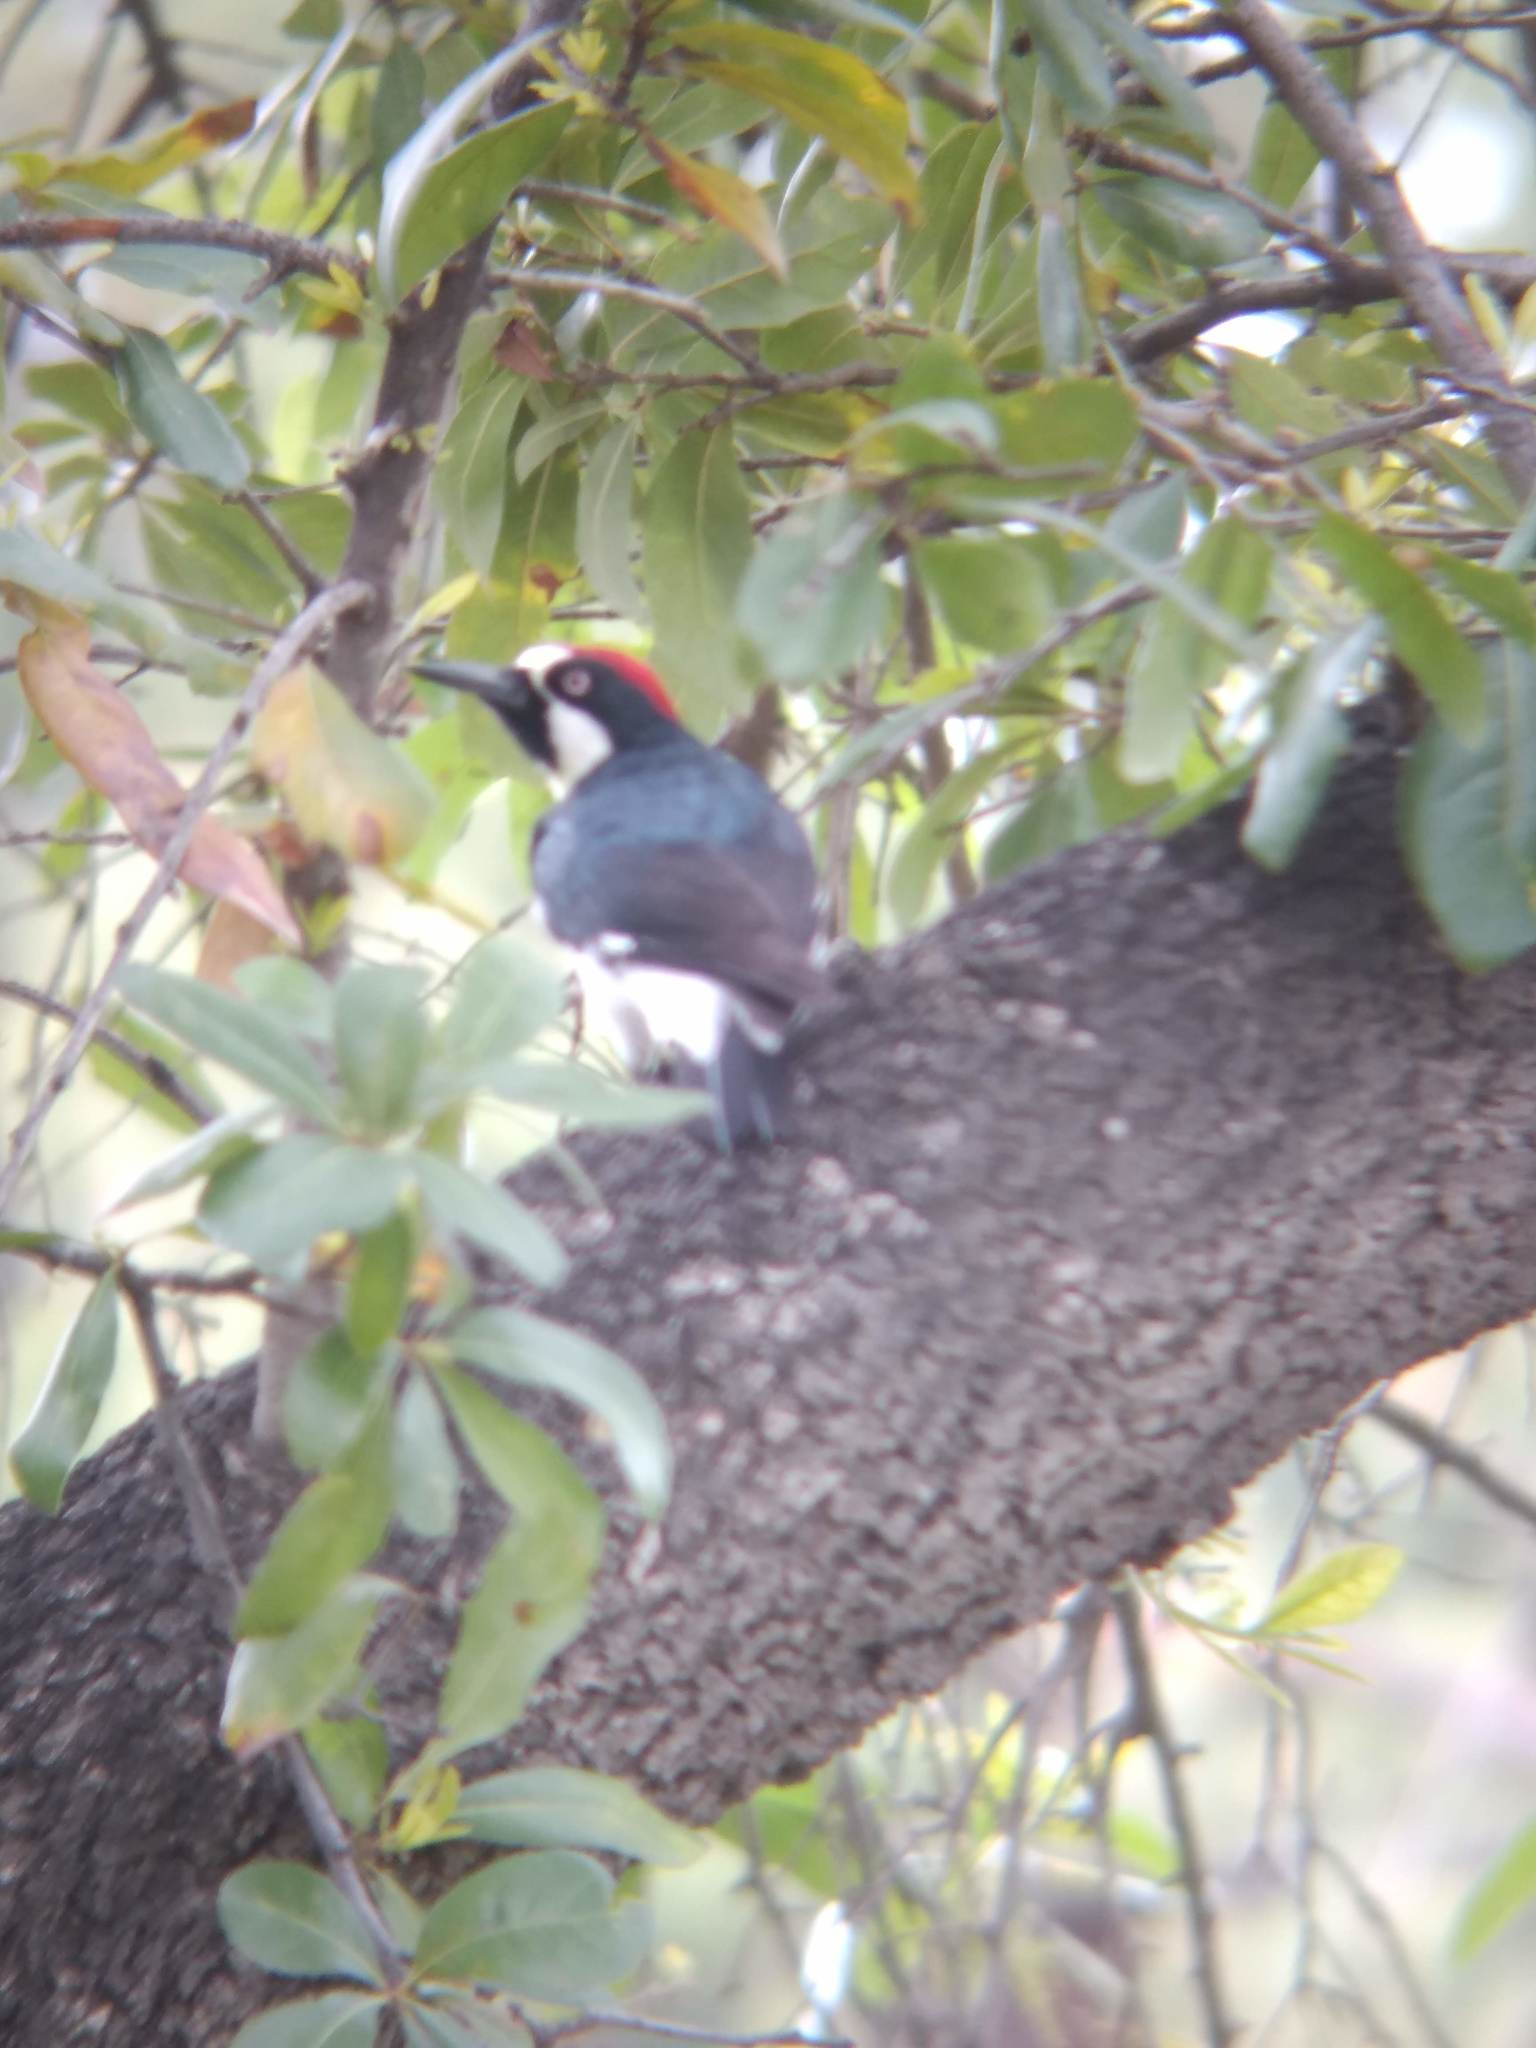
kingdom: Animalia
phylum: Chordata
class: Aves
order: Piciformes
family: Picidae
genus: Melanerpes
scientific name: Melanerpes formicivorus
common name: Acorn woodpecker
